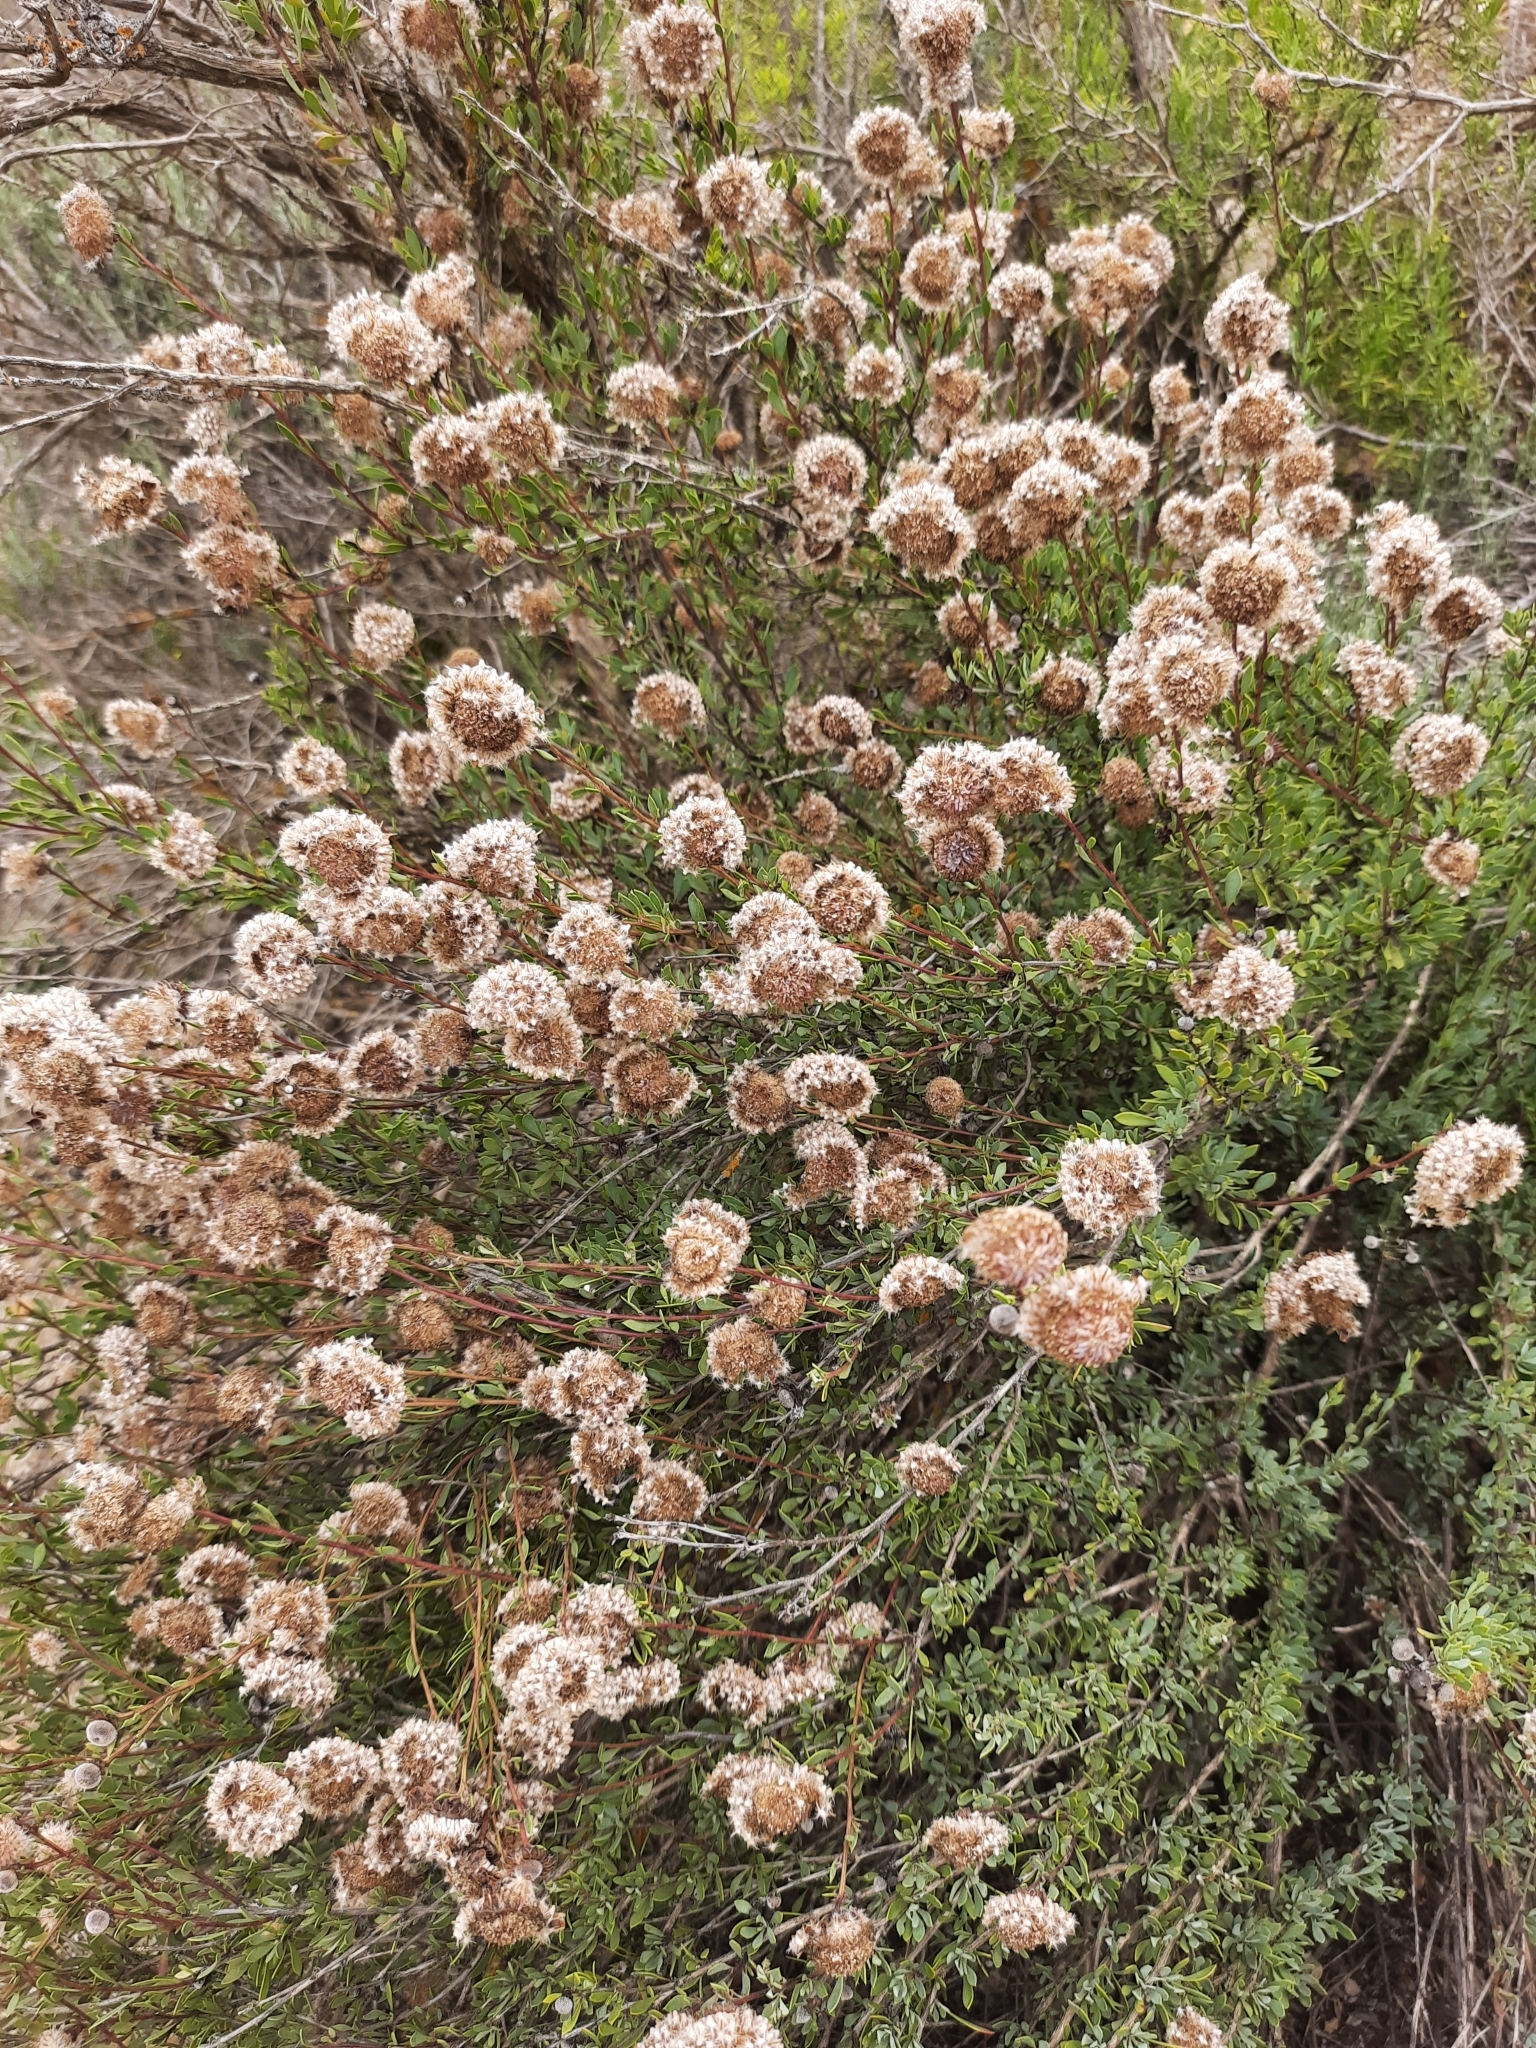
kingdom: Plantae
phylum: Tracheophyta
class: Magnoliopsida
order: Lamiales
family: Plantaginaceae
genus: Globularia
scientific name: Globularia alypum
